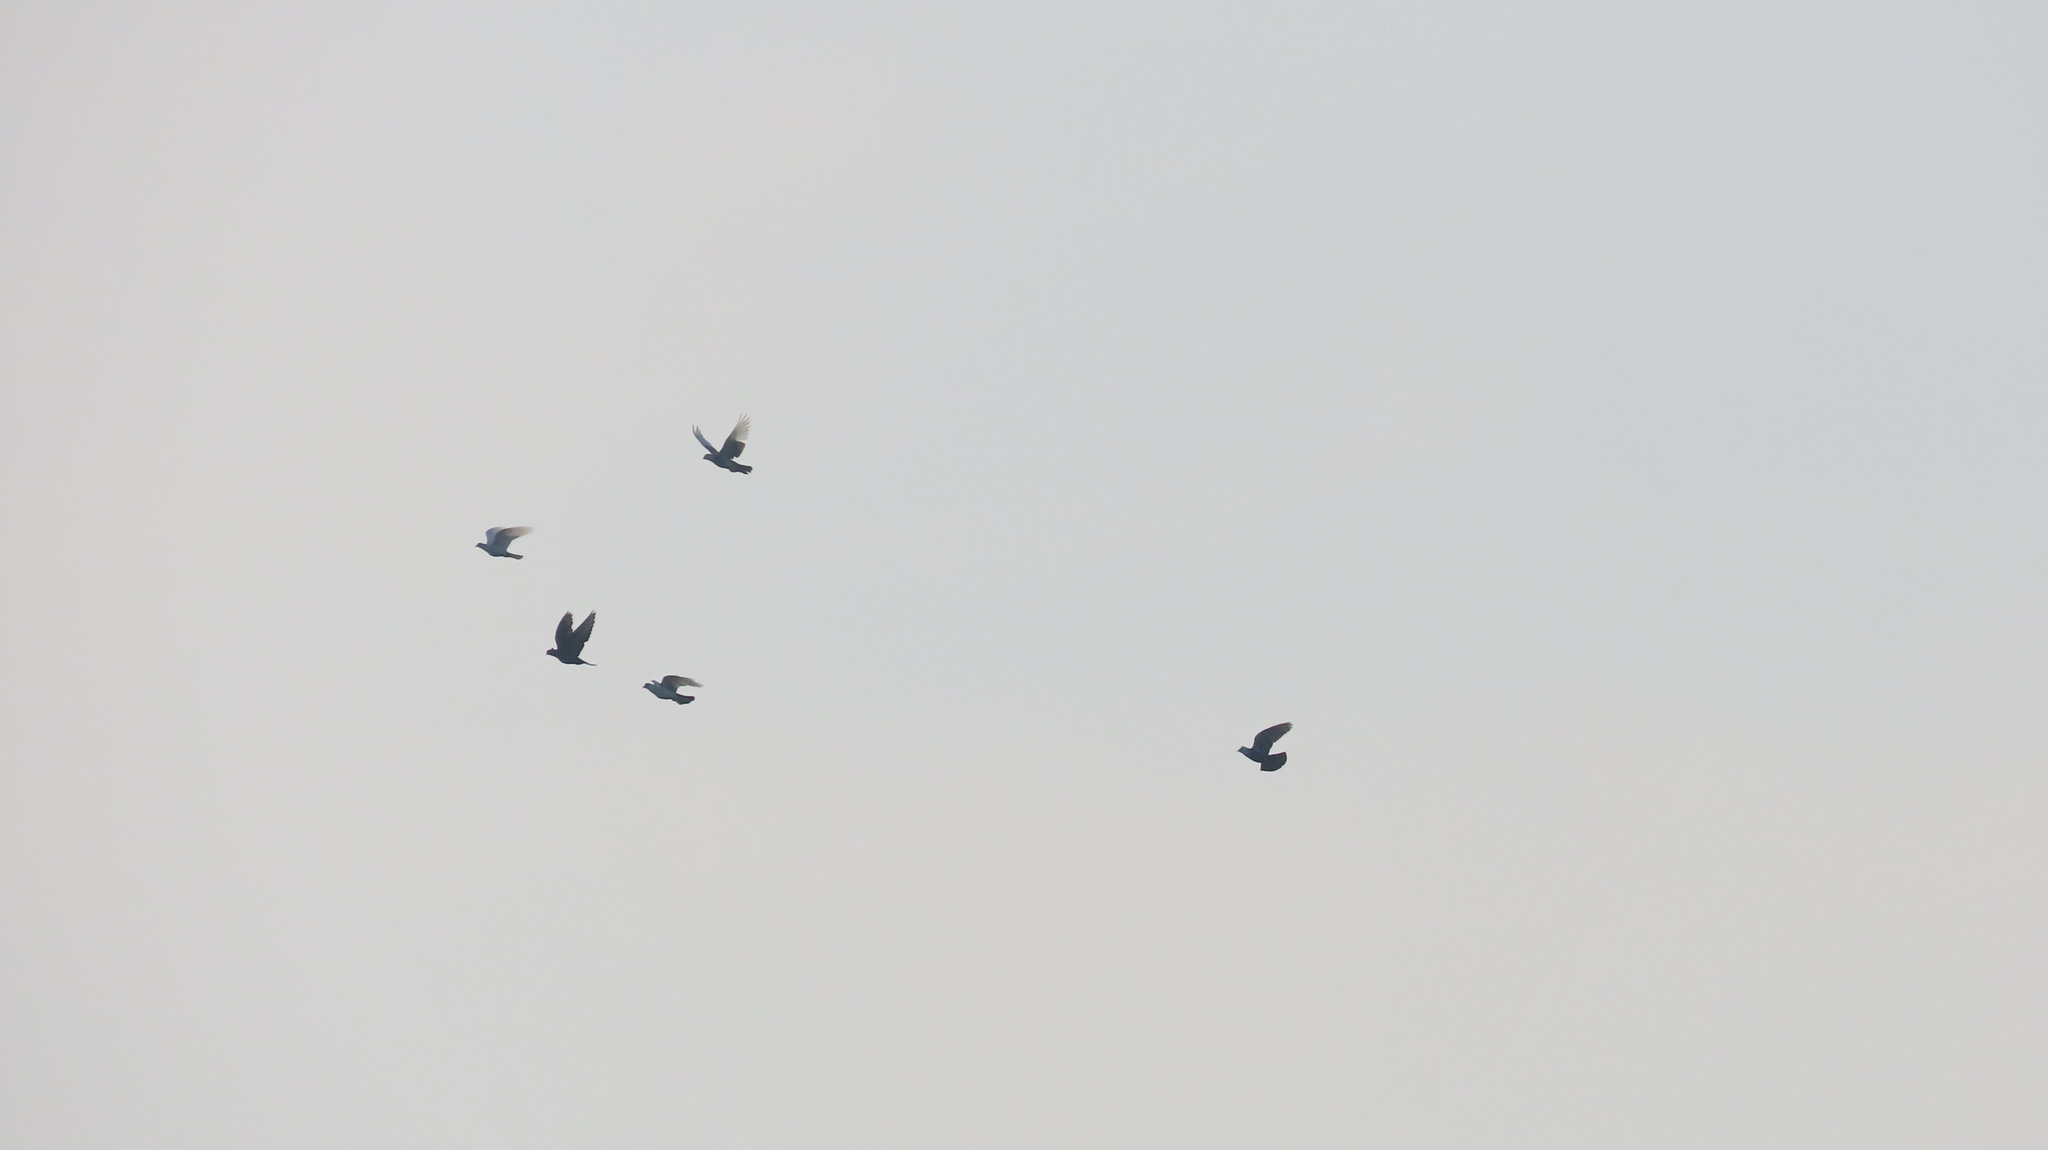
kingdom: Animalia
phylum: Chordata
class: Aves
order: Columbiformes
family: Columbidae
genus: Columba
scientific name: Columba livia
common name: Rock pigeon
